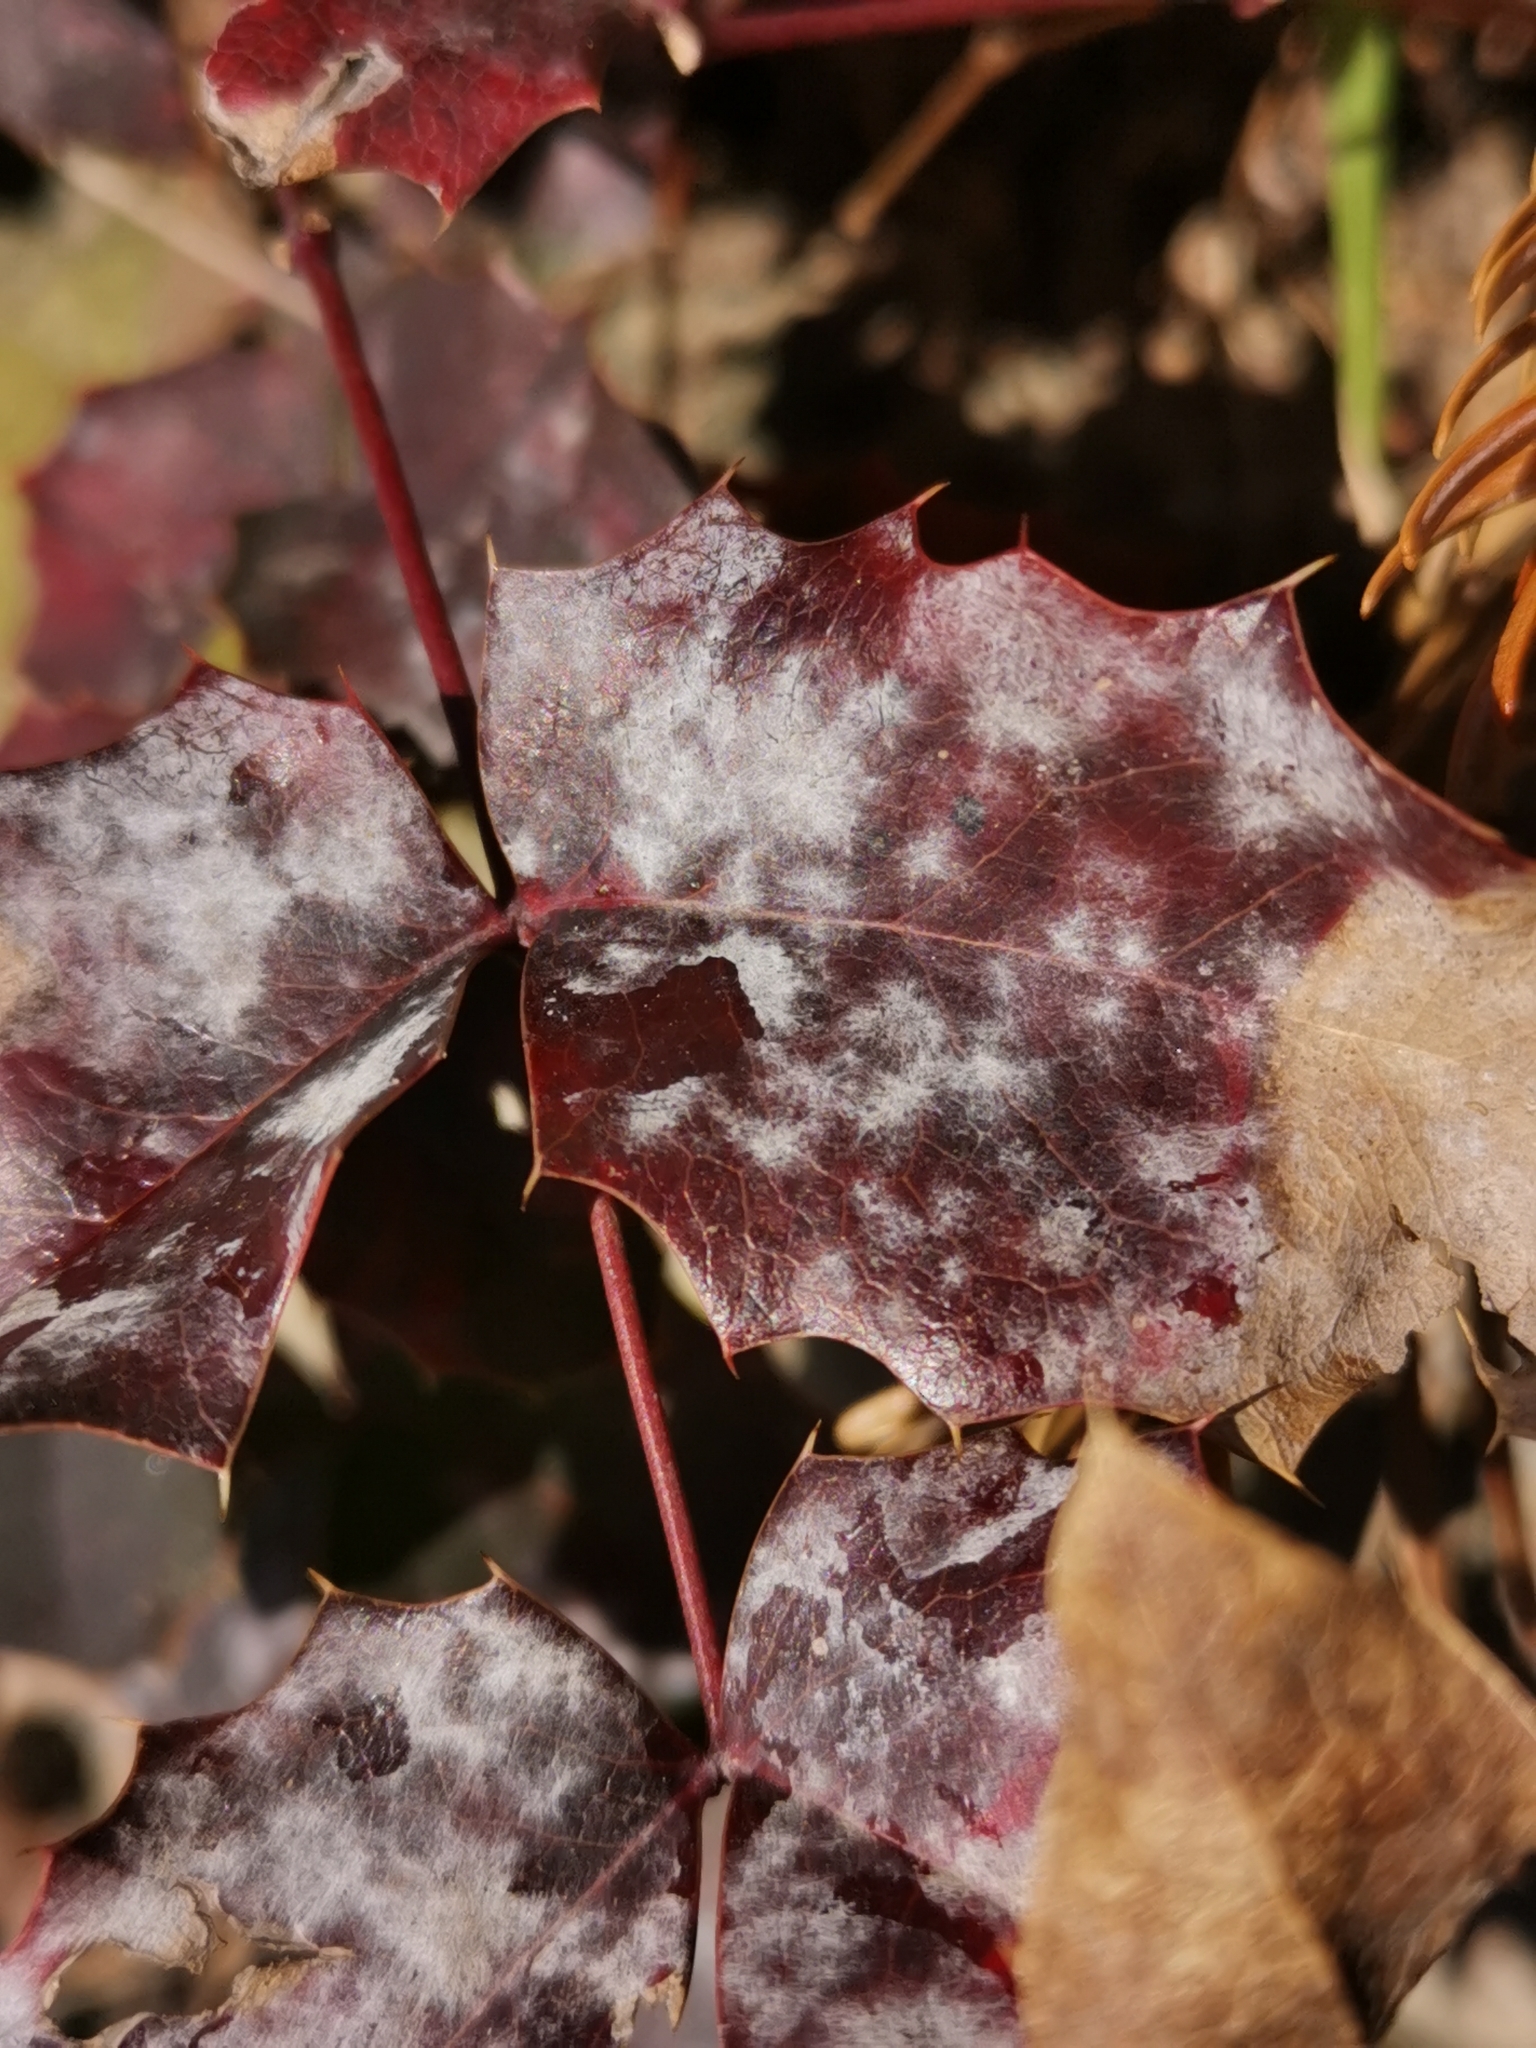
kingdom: Fungi
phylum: Ascomycota
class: Leotiomycetes
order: Helotiales
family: Erysiphaceae
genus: Erysiphe
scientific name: Erysiphe berberidis
